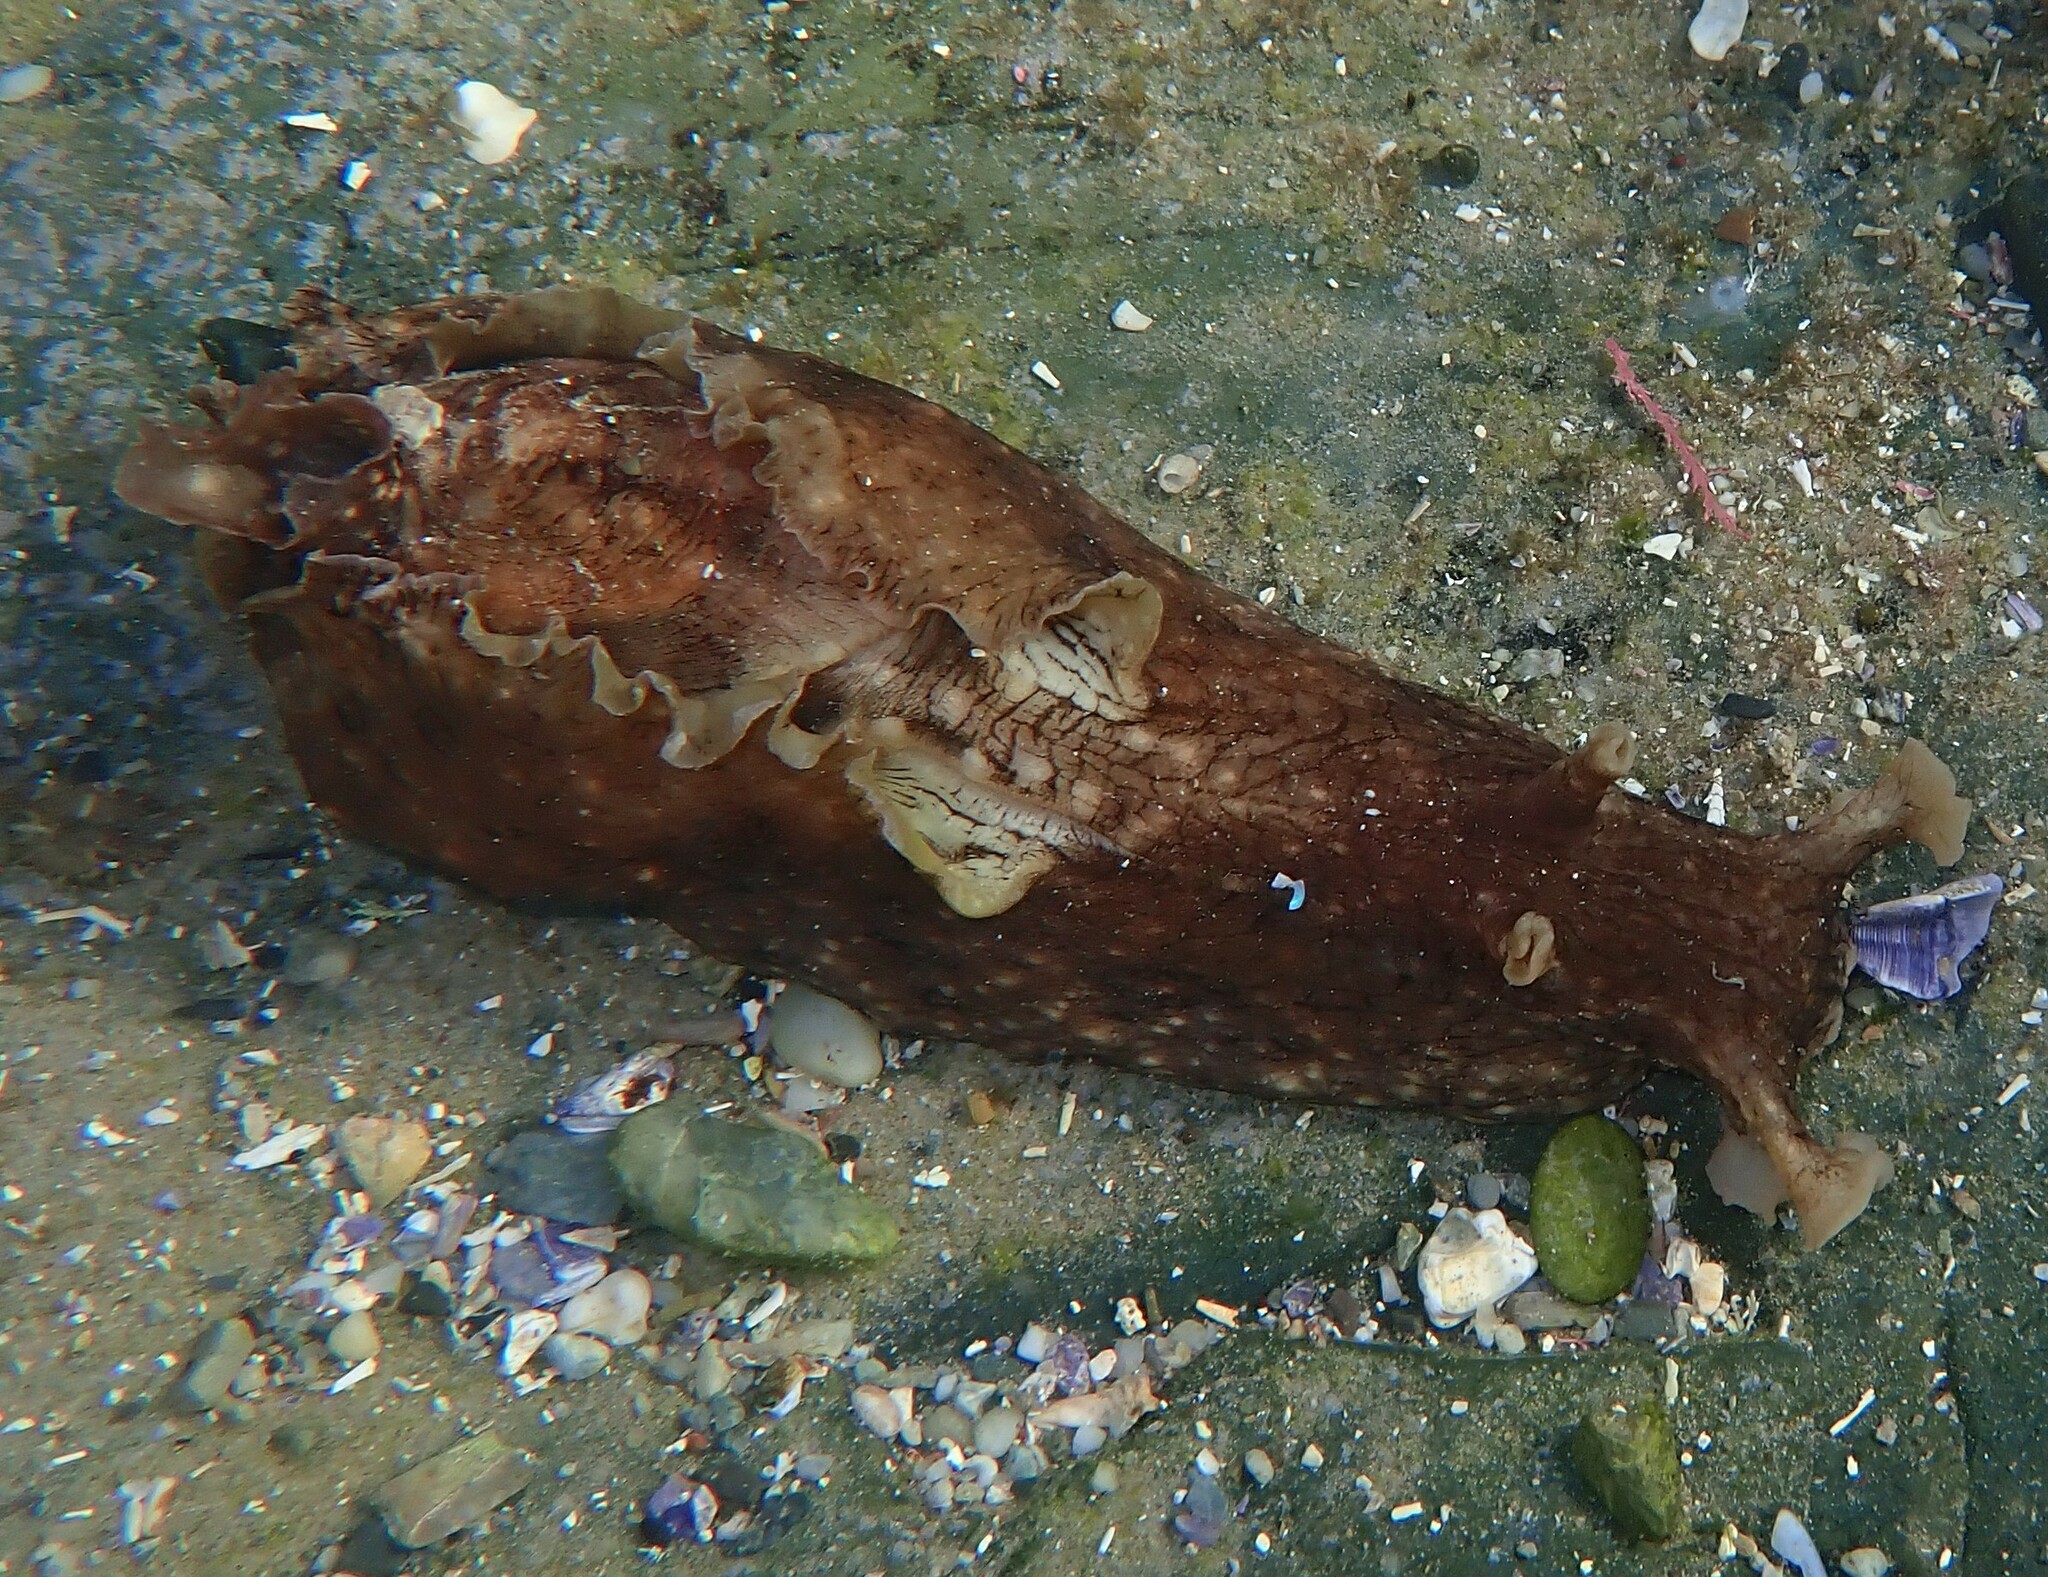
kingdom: Animalia
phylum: Mollusca
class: Gastropoda
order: Aplysiida
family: Aplysiidae
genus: Aplysia
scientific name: Aplysia argus
